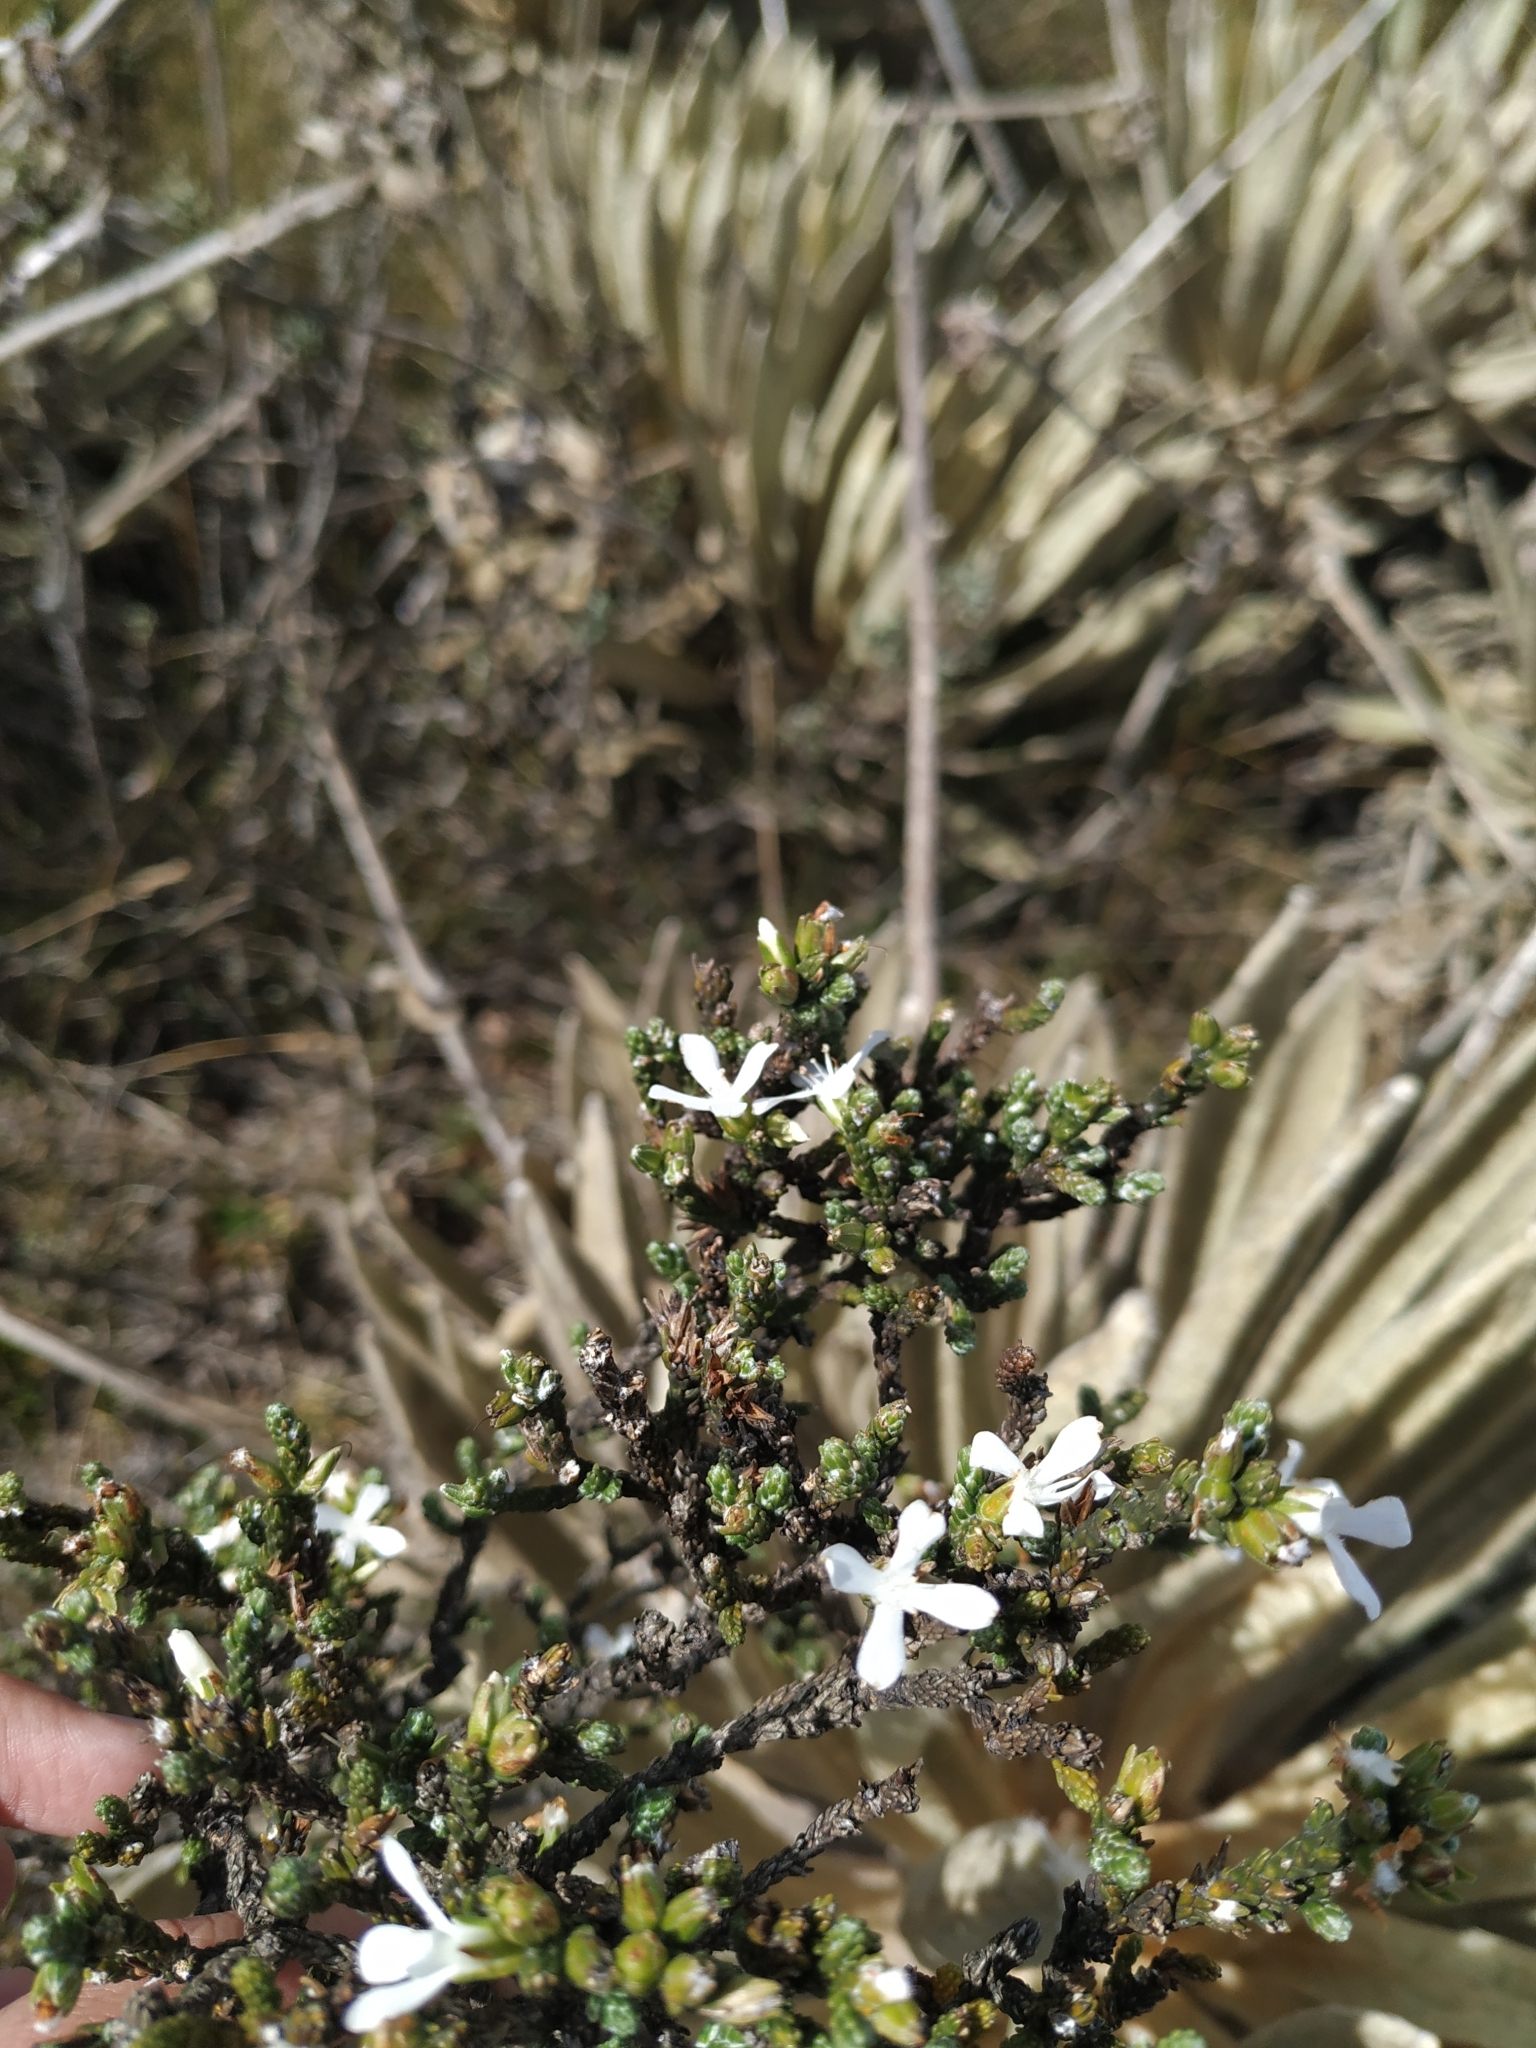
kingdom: Plantae
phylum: Tracheophyta
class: Magnoliopsida
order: Lamiales
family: Plantaginaceae
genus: Aragoa
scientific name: Aragoa cupressina
